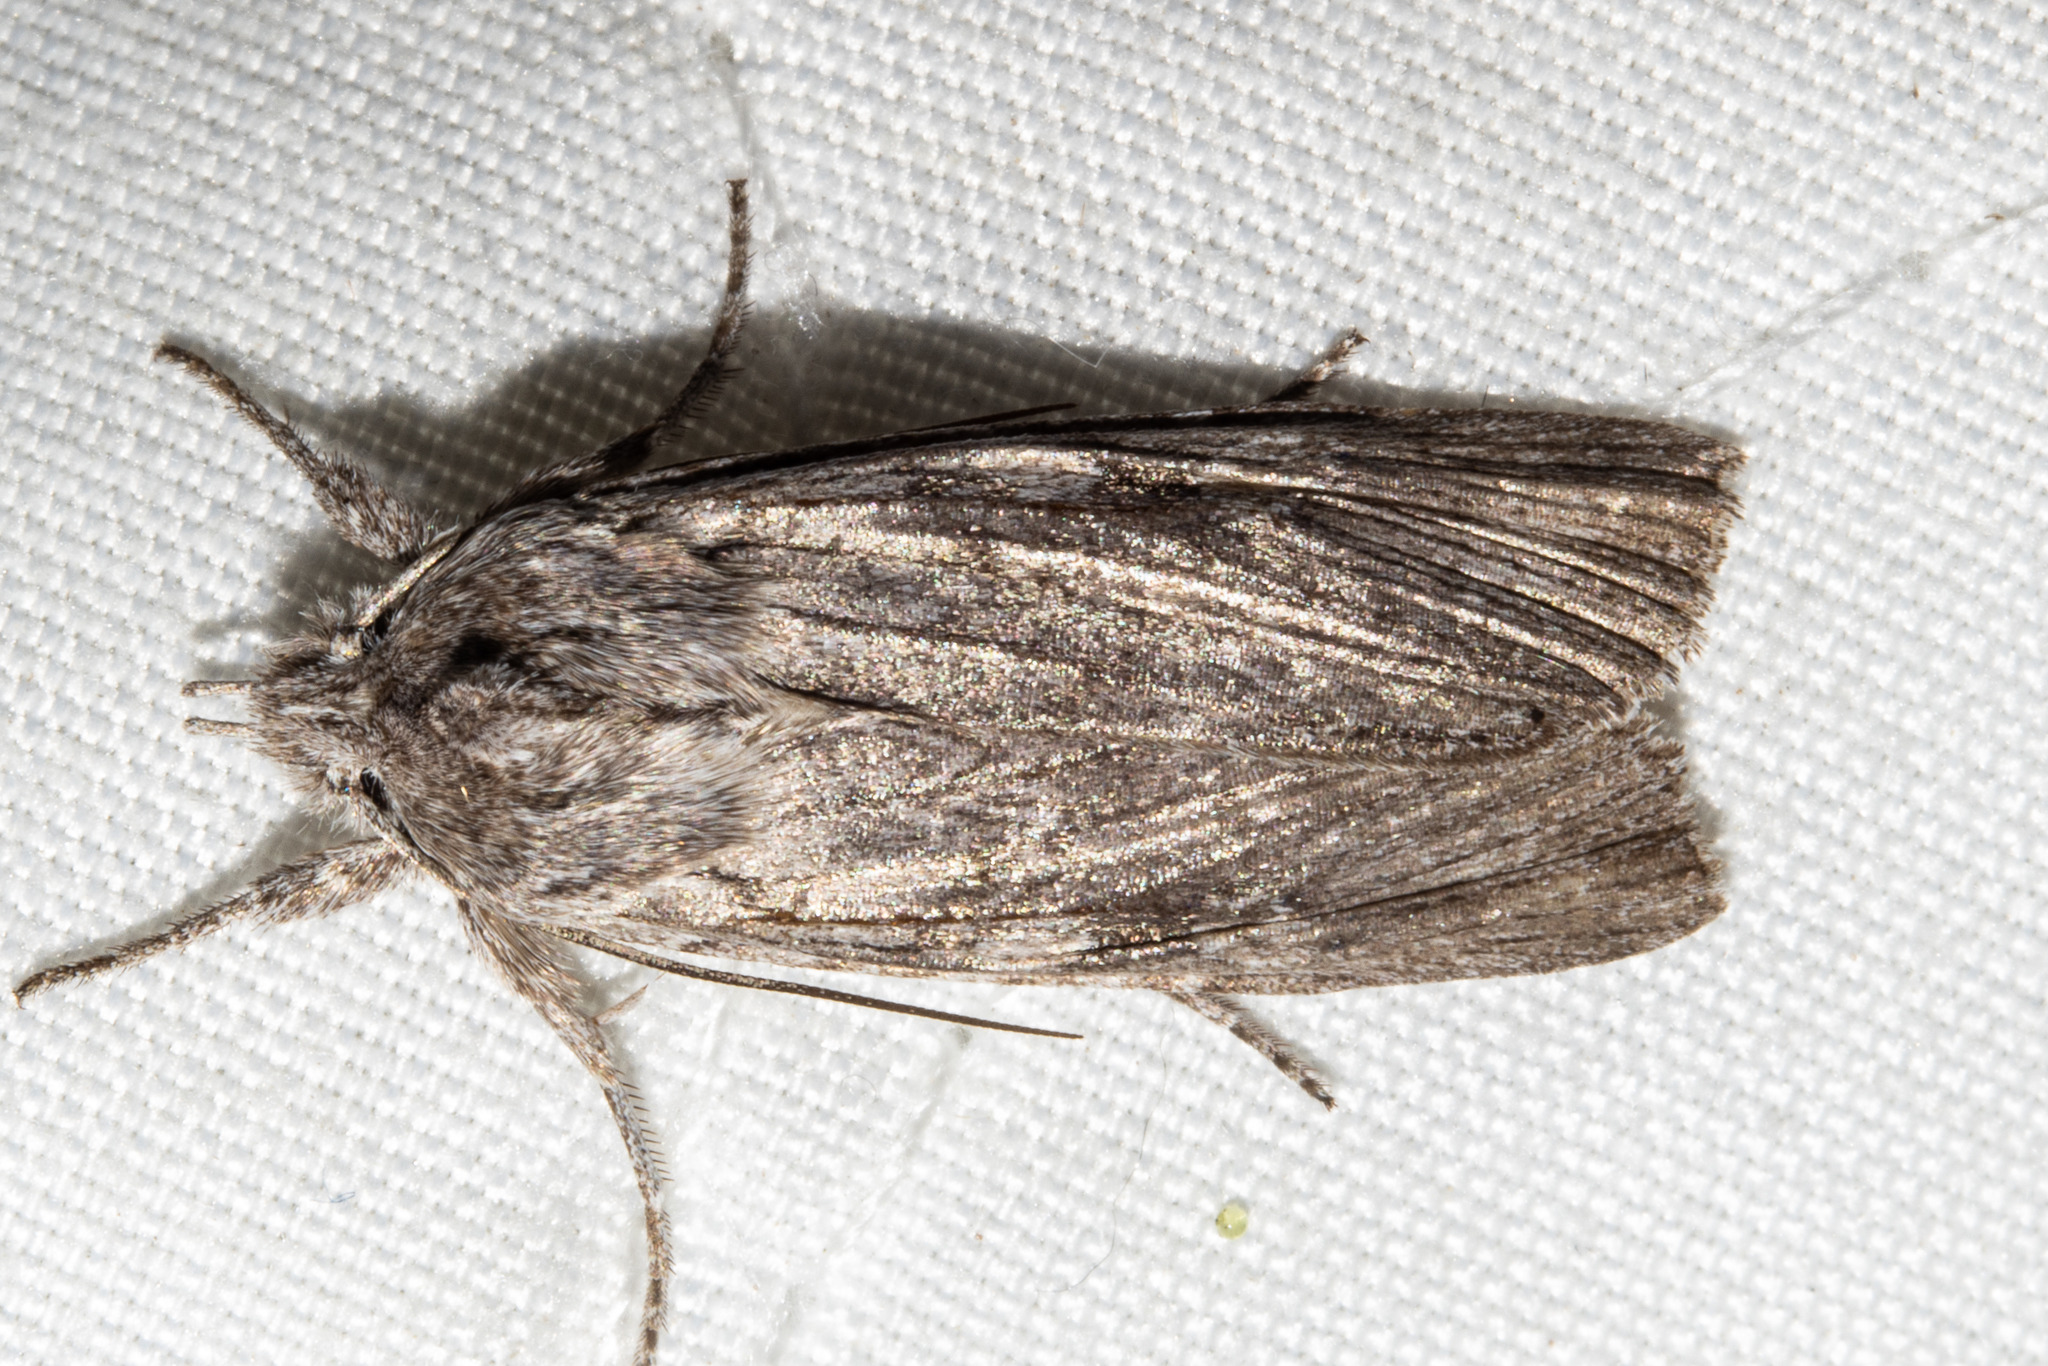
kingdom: Animalia
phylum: Arthropoda
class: Insecta
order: Lepidoptera
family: Noctuidae
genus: Physetica
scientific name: Physetica phricias
